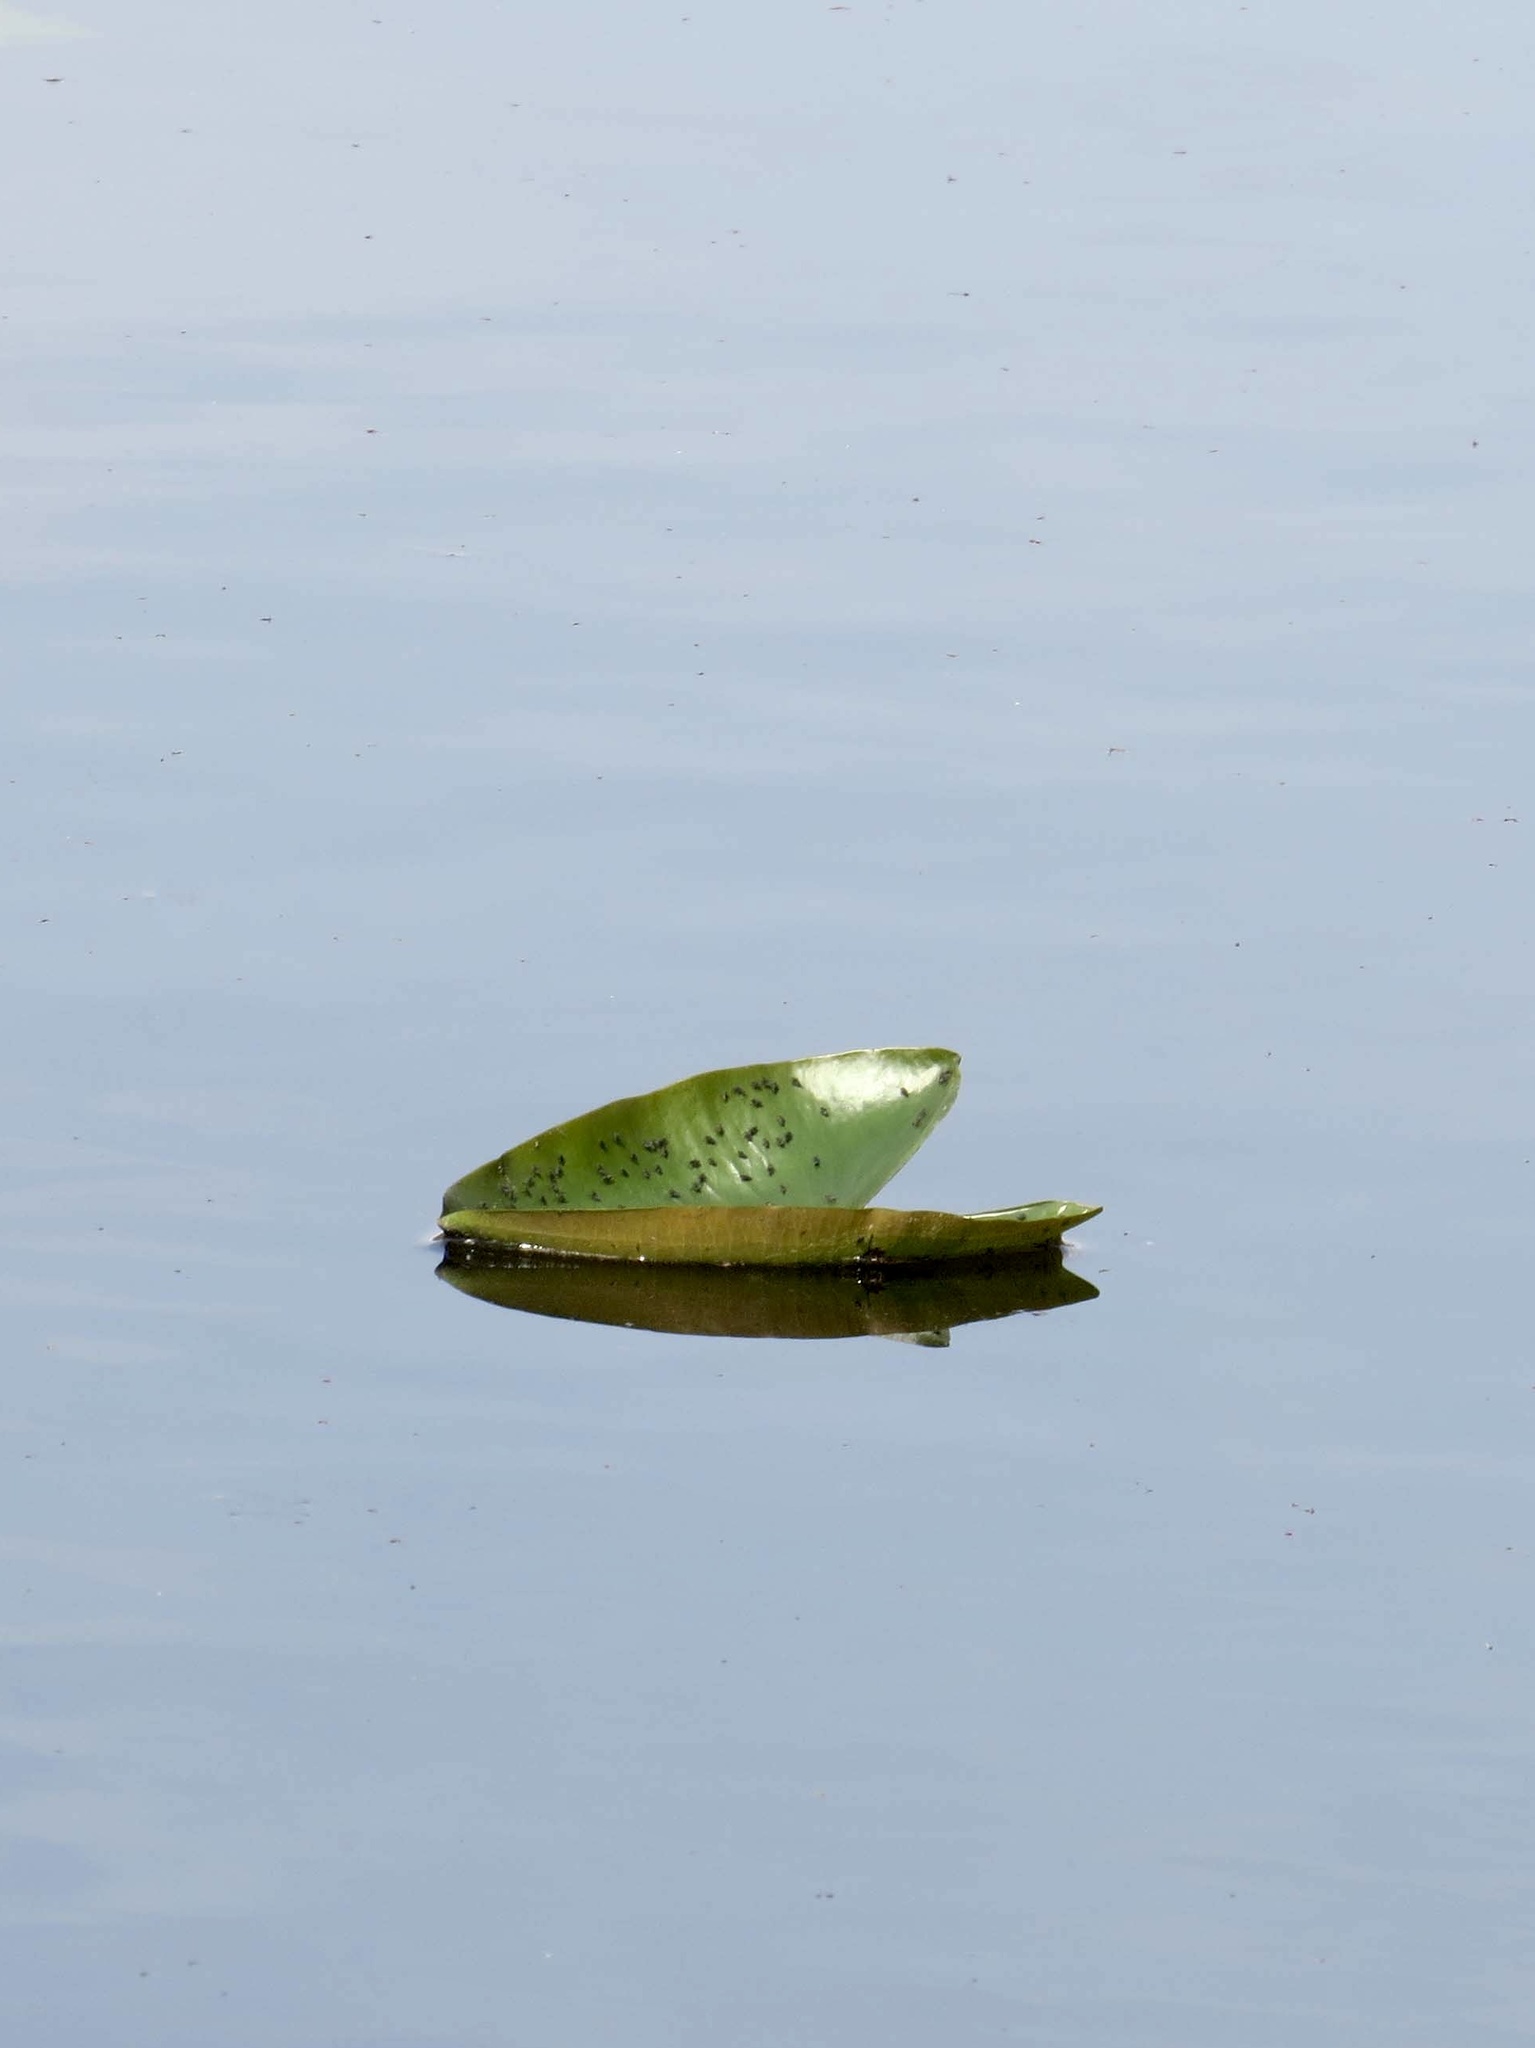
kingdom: Plantae
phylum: Tracheophyta
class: Magnoliopsida
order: Nymphaeales
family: Nymphaeaceae
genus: Nuphar
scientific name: Nuphar advena
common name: Spatter-dock
